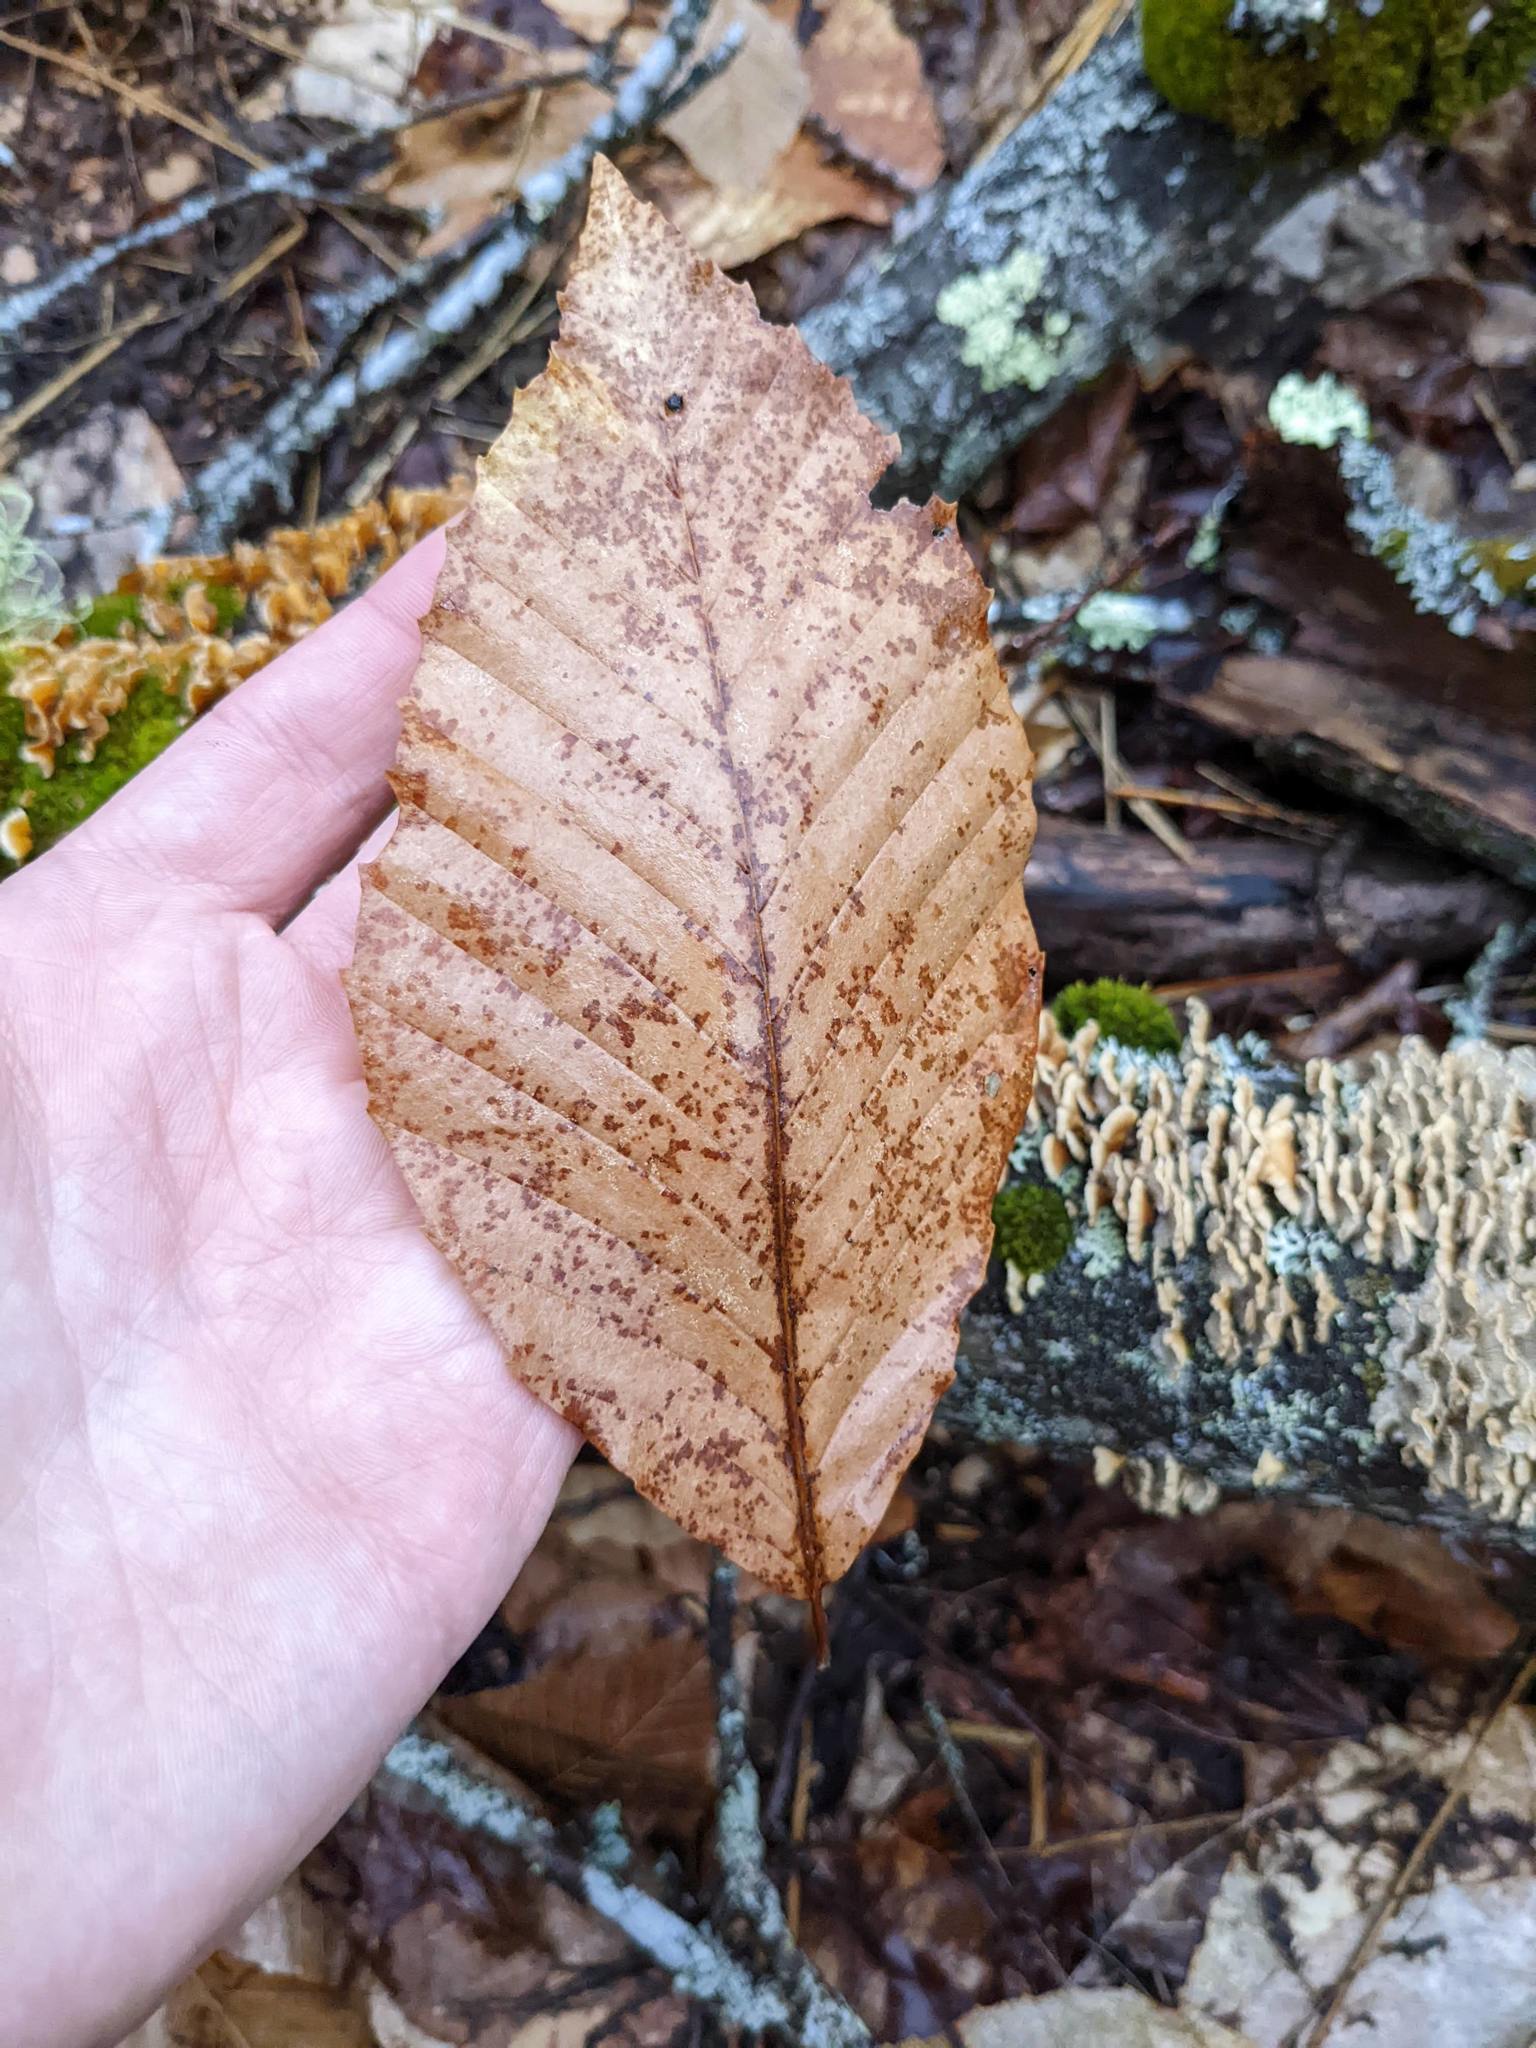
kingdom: Plantae
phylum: Tracheophyta
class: Magnoliopsida
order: Fagales
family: Fagaceae
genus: Fagus
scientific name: Fagus grandifolia
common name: American beech
